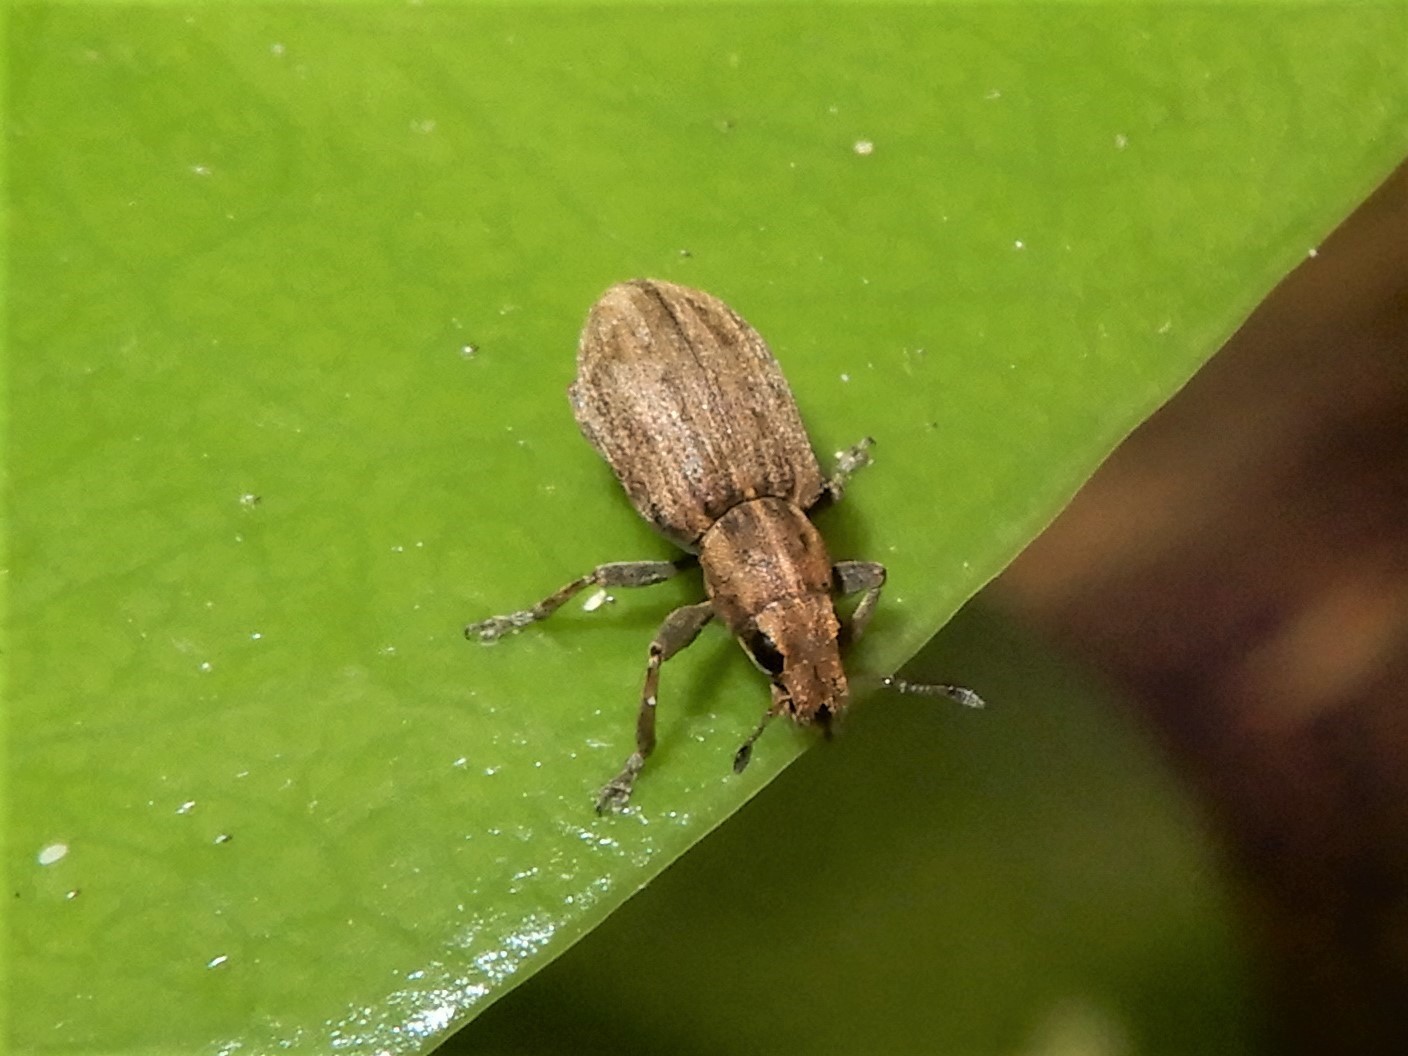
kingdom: Animalia
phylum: Arthropoda
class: Insecta
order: Coleoptera
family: Curculionidae
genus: Sitona
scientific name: Sitona obsoletus
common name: Weevil
